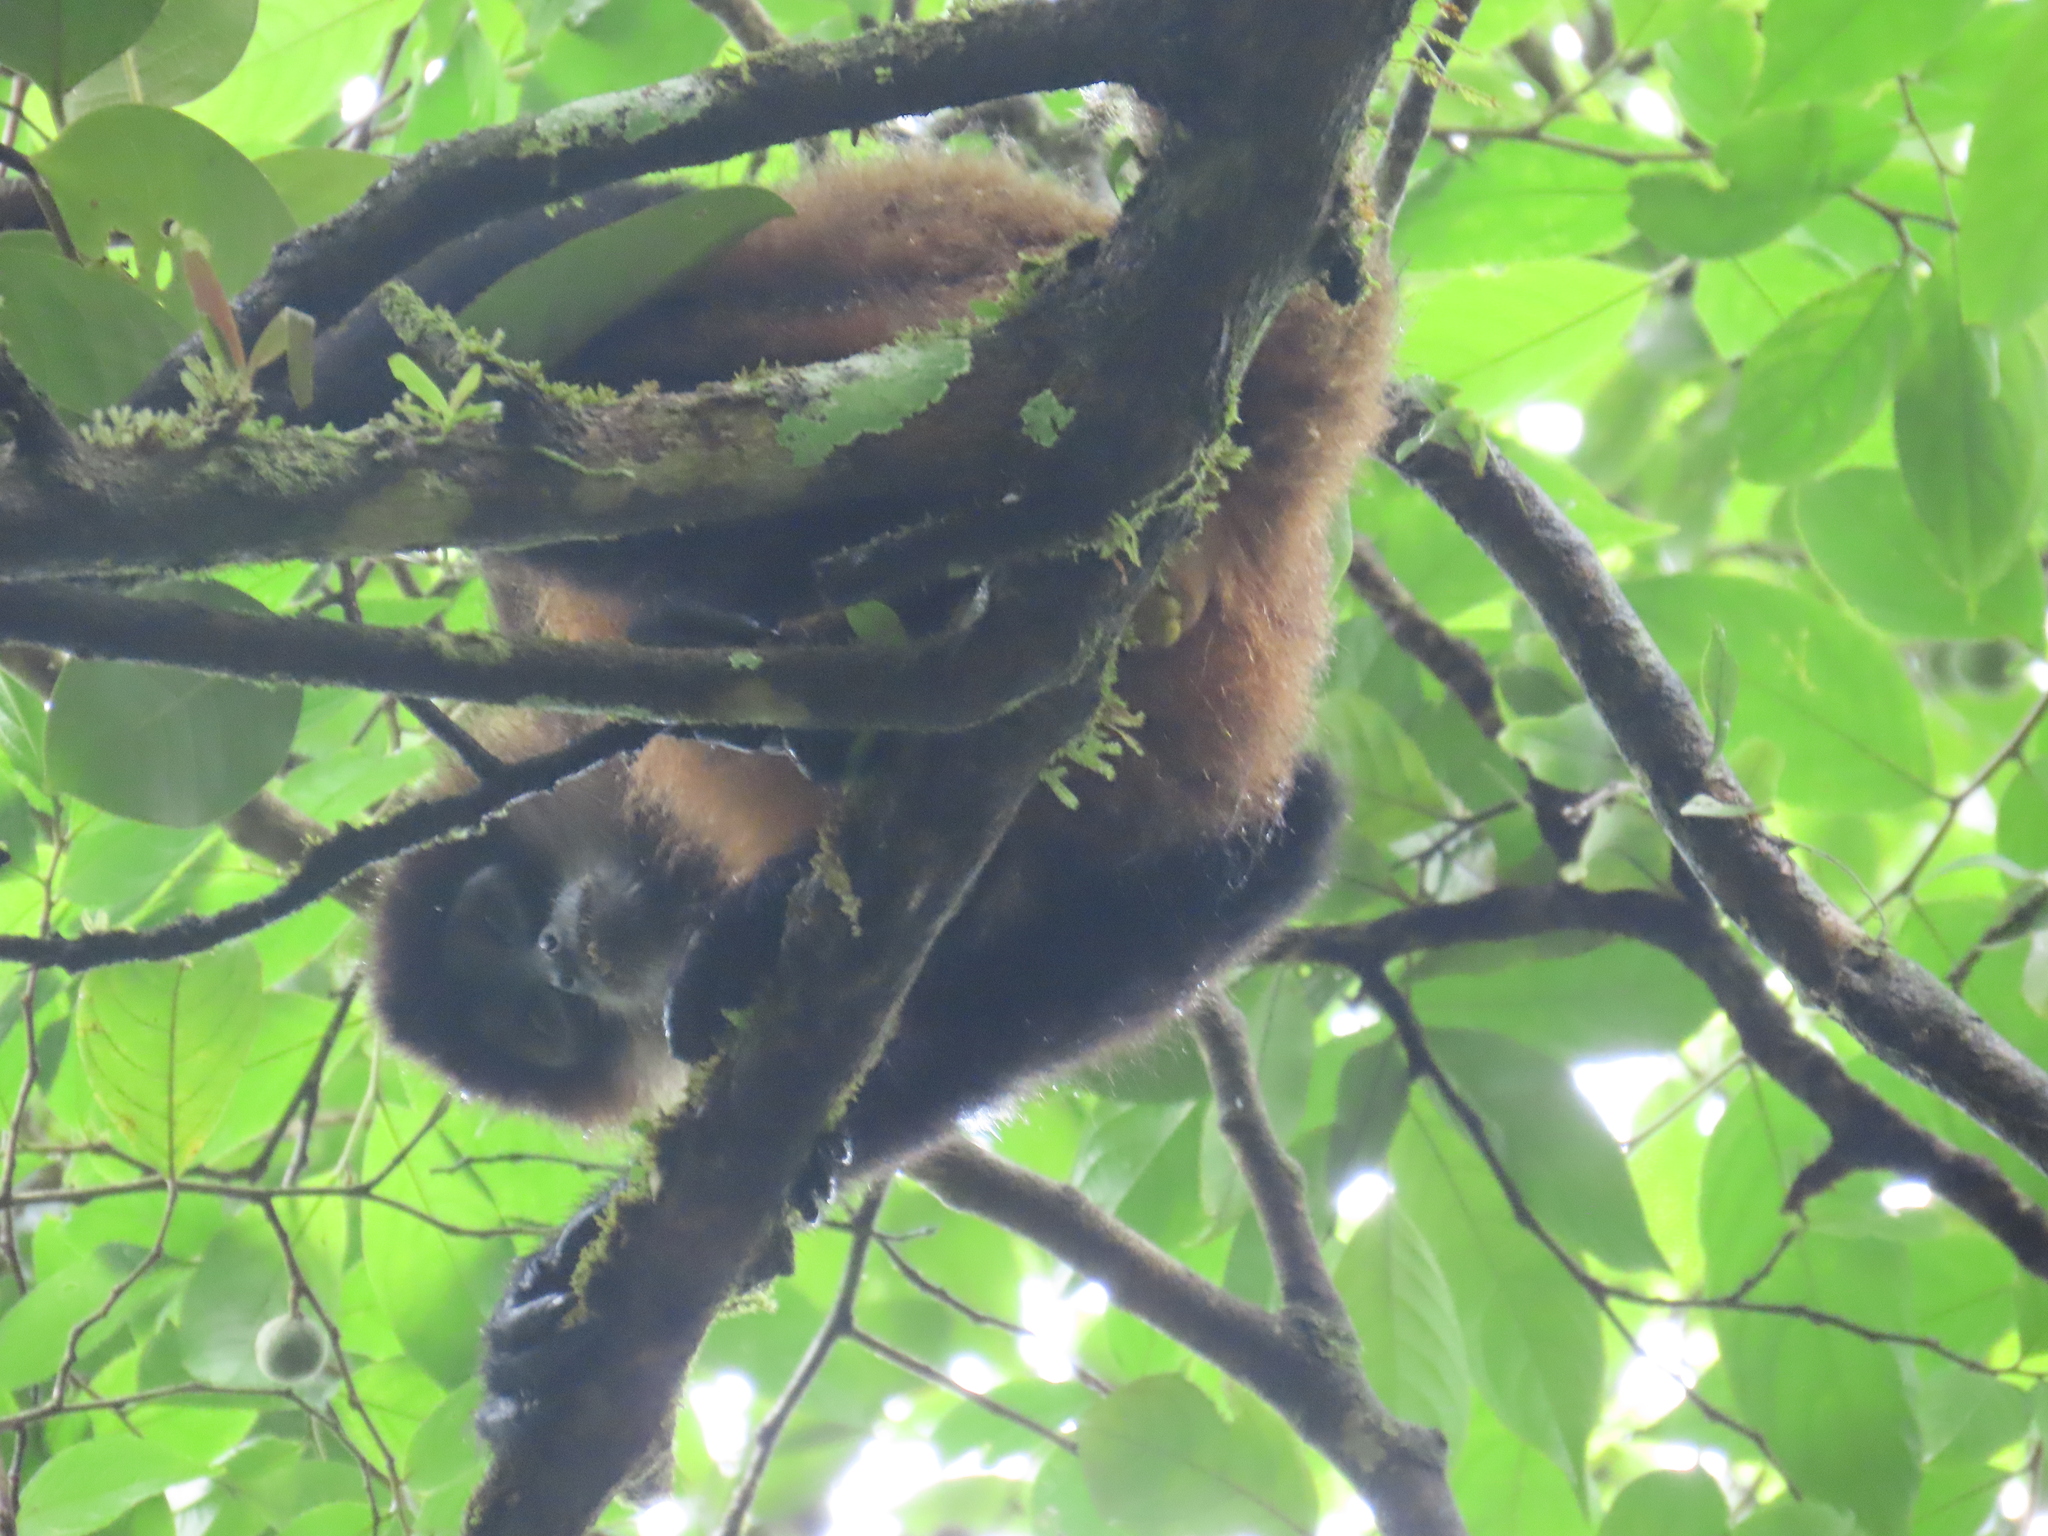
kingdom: Animalia
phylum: Chordata
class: Mammalia
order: Primates
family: Atelidae
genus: Ateles
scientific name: Ateles geoffroyi
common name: Black-handed spider monkey
